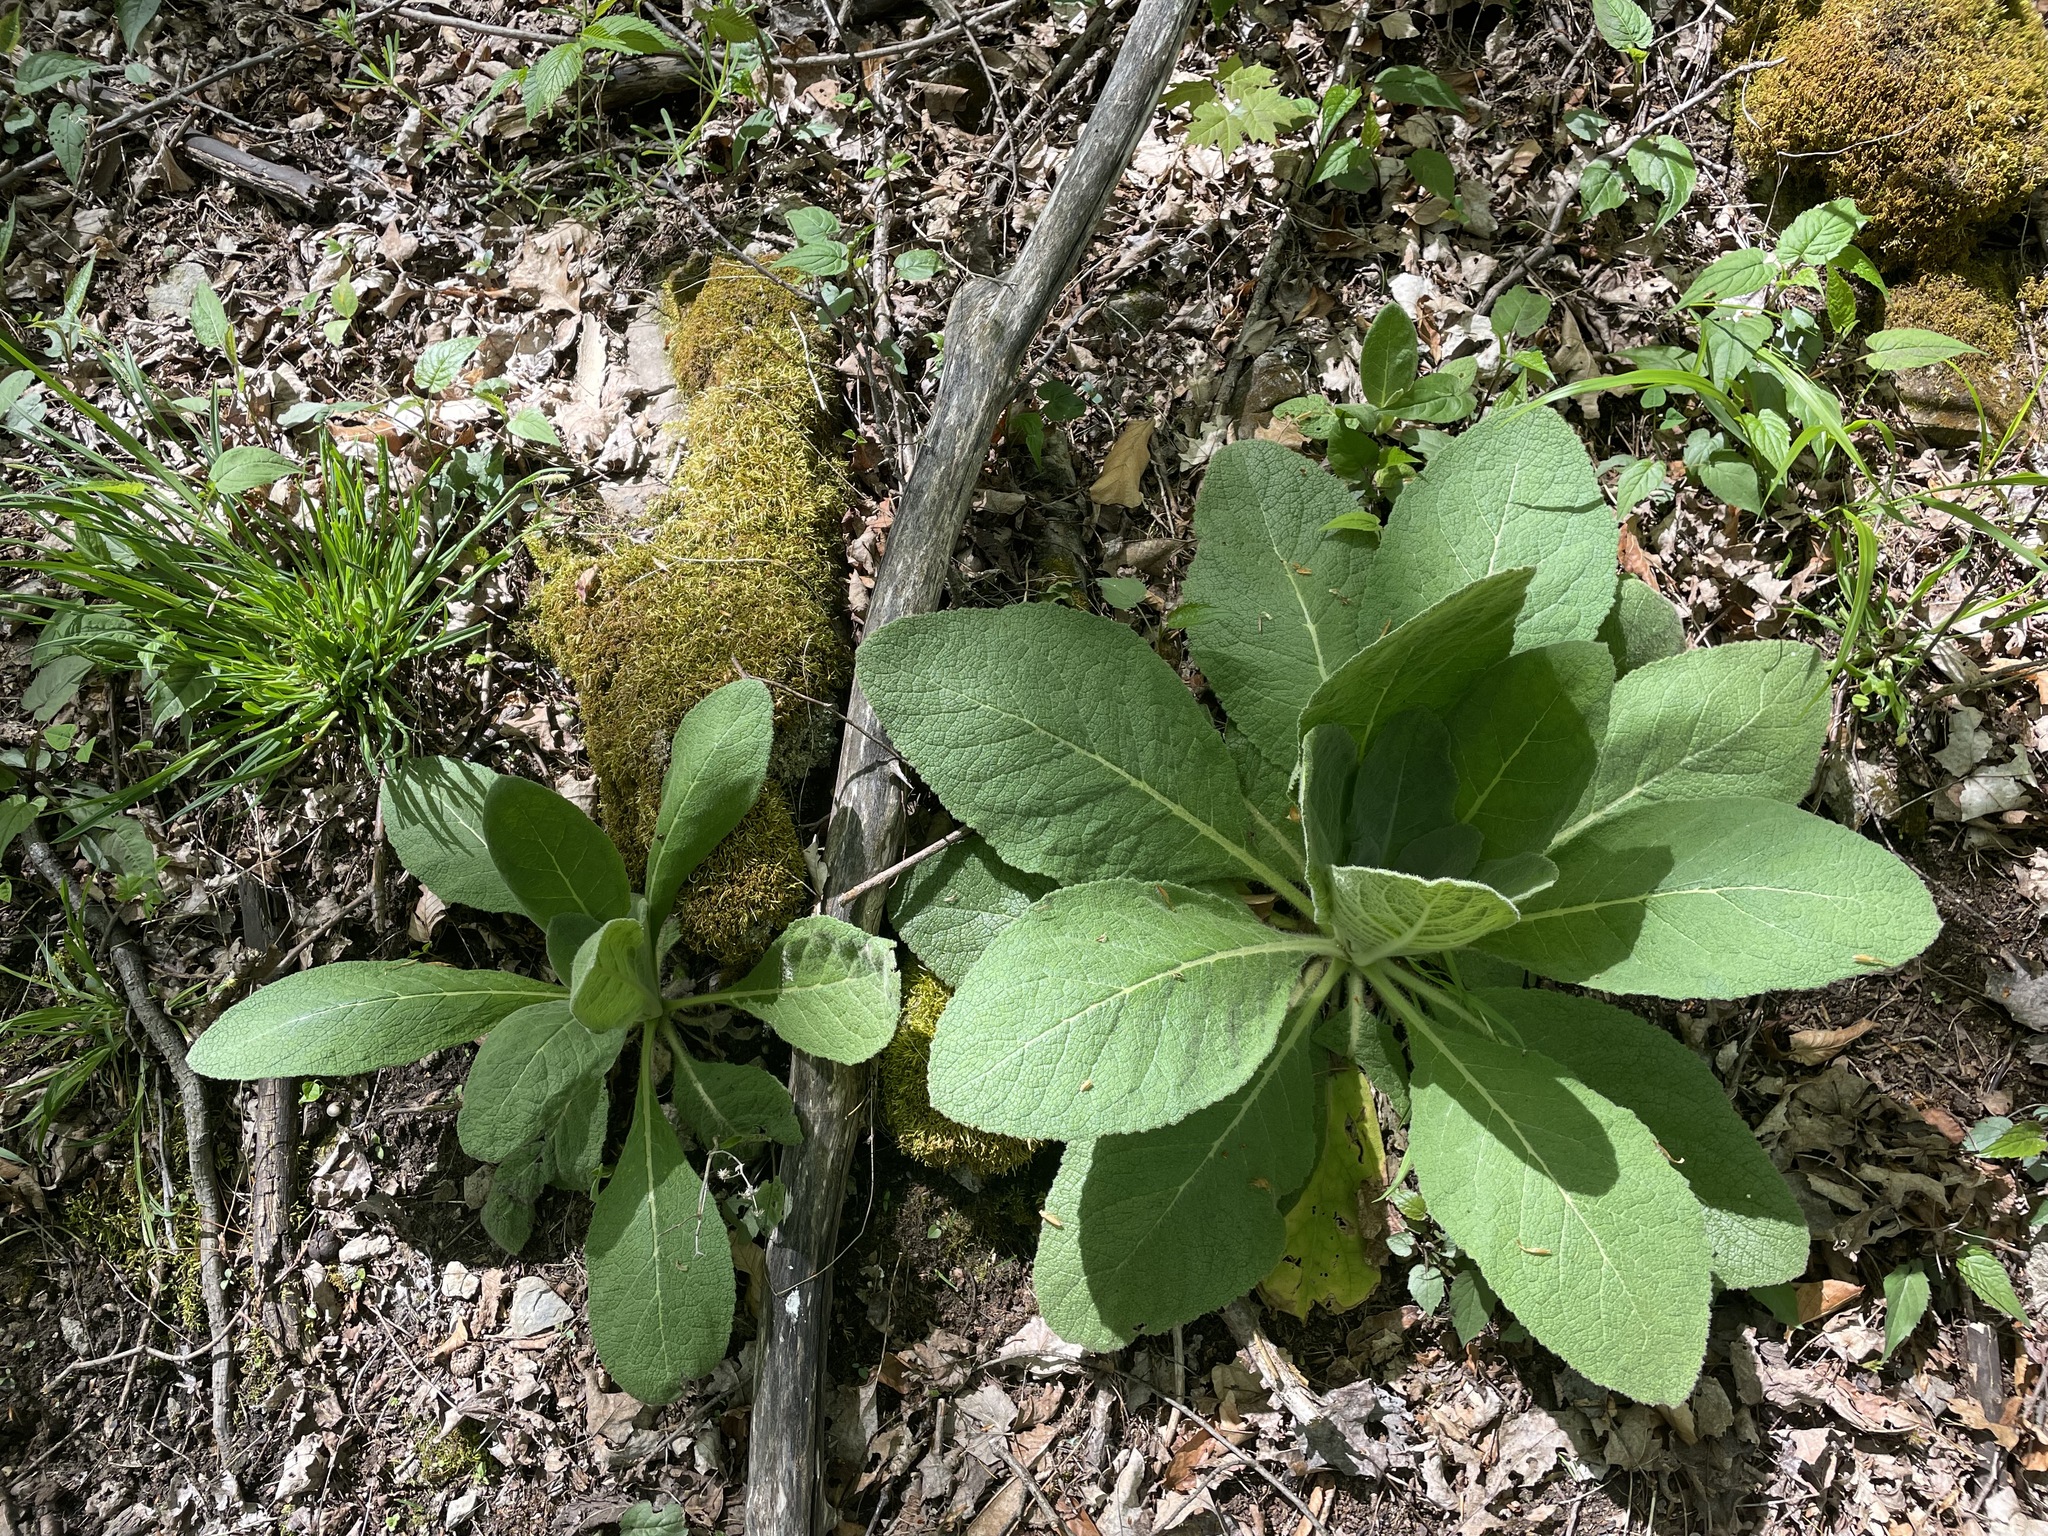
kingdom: Plantae
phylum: Tracheophyta
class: Magnoliopsida
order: Lamiales
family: Scrophulariaceae
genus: Verbascum
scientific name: Verbascum thapsus
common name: Common mullein
